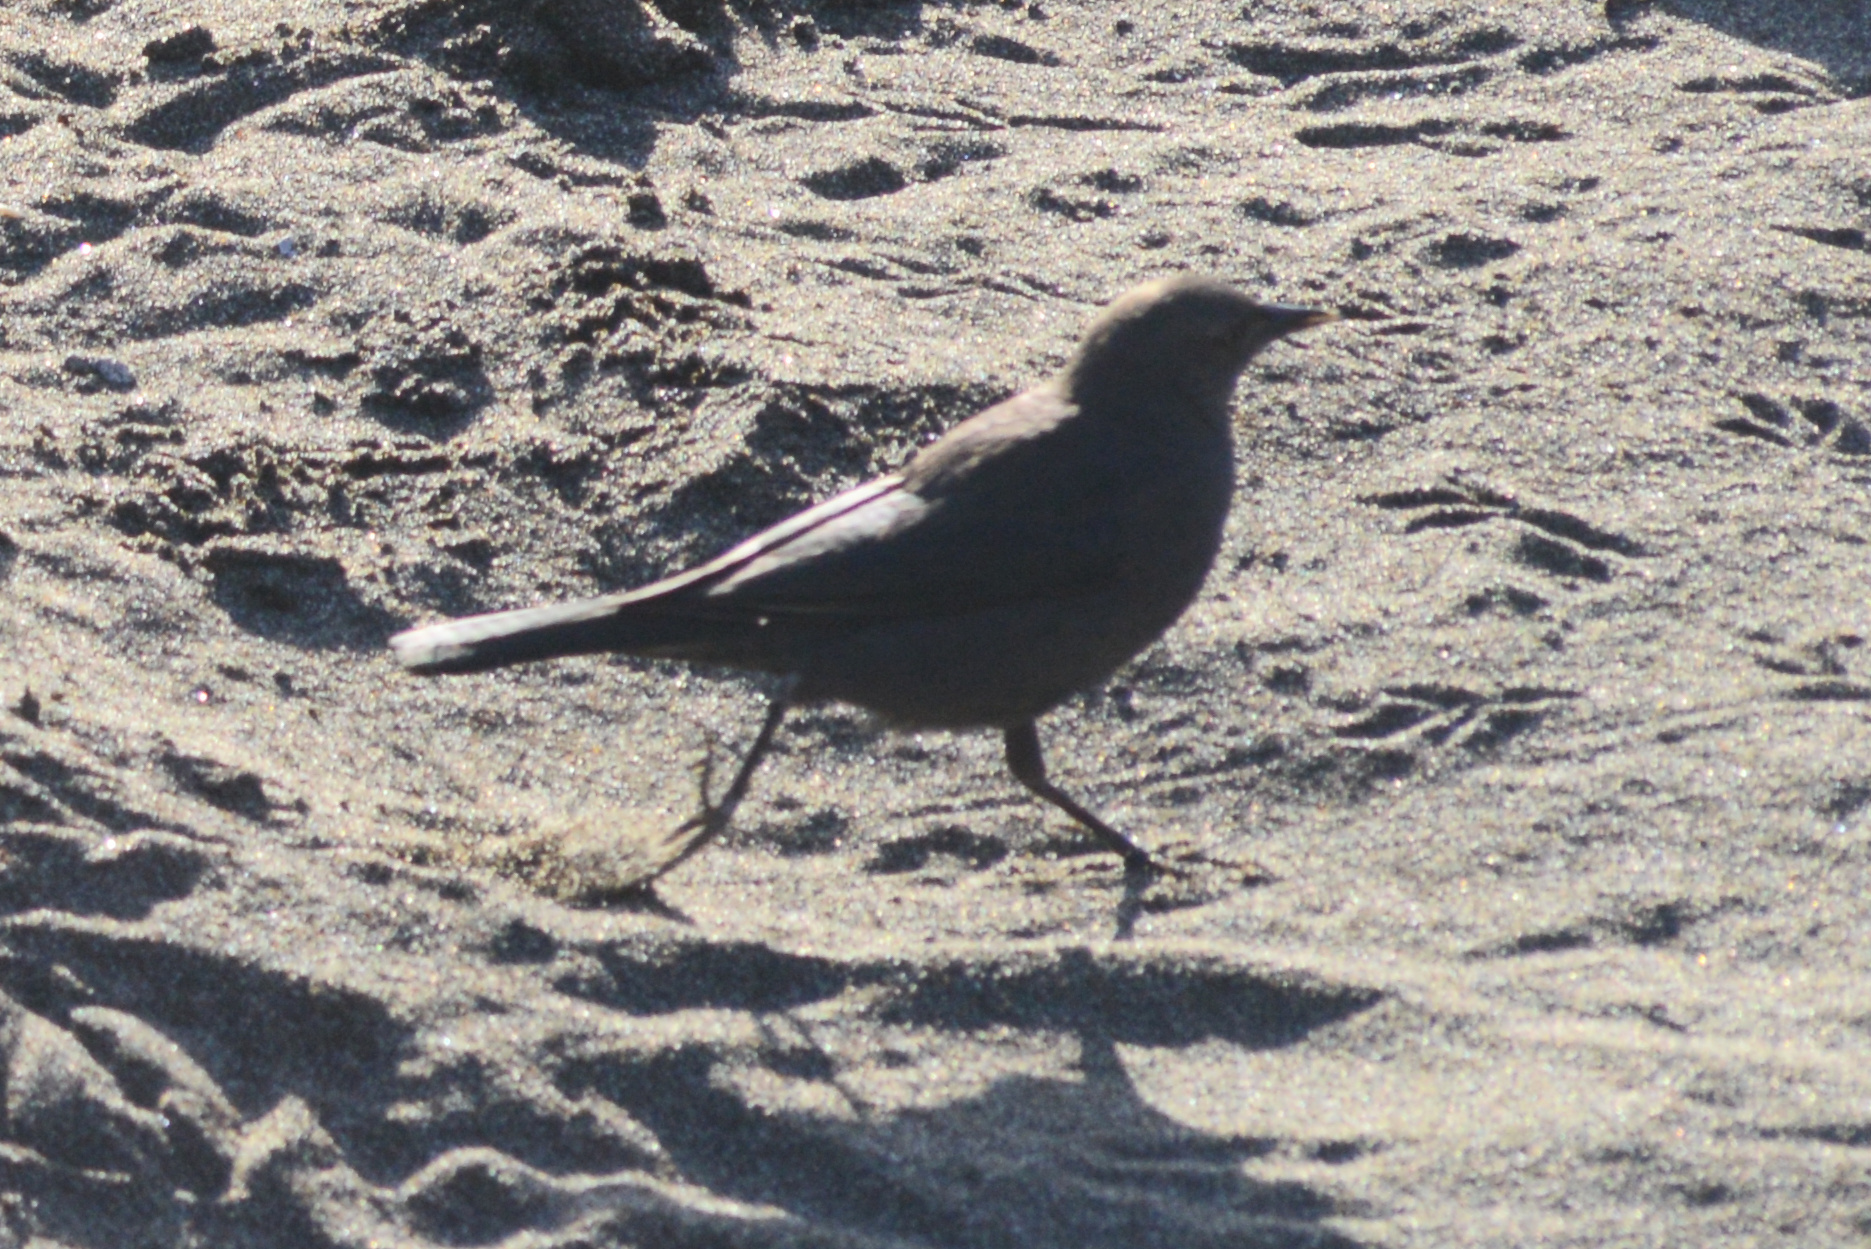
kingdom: Animalia
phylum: Chordata
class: Aves
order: Passeriformes
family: Icteridae
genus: Euphagus
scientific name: Euphagus cyanocephalus
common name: Brewer's blackbird
